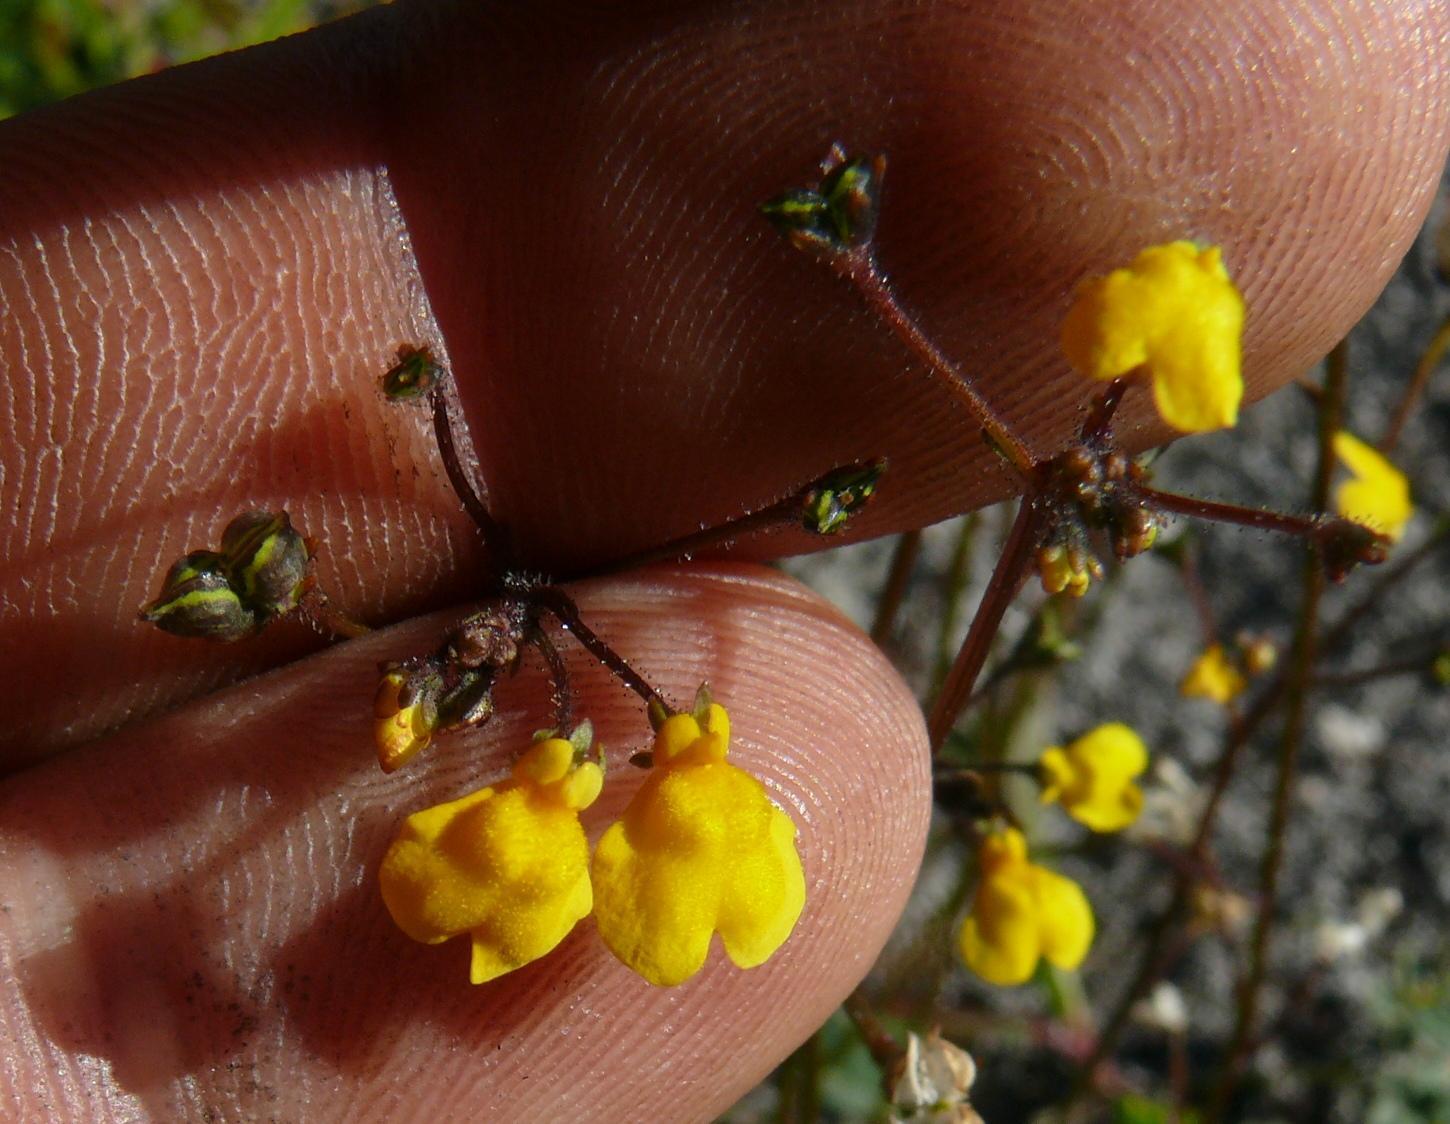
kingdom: Plantae
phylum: Tracheophyta
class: Magnoliopsida
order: Lamiales
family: Scrophulariaceae
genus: Nemesia
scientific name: Nemesia pinnata
